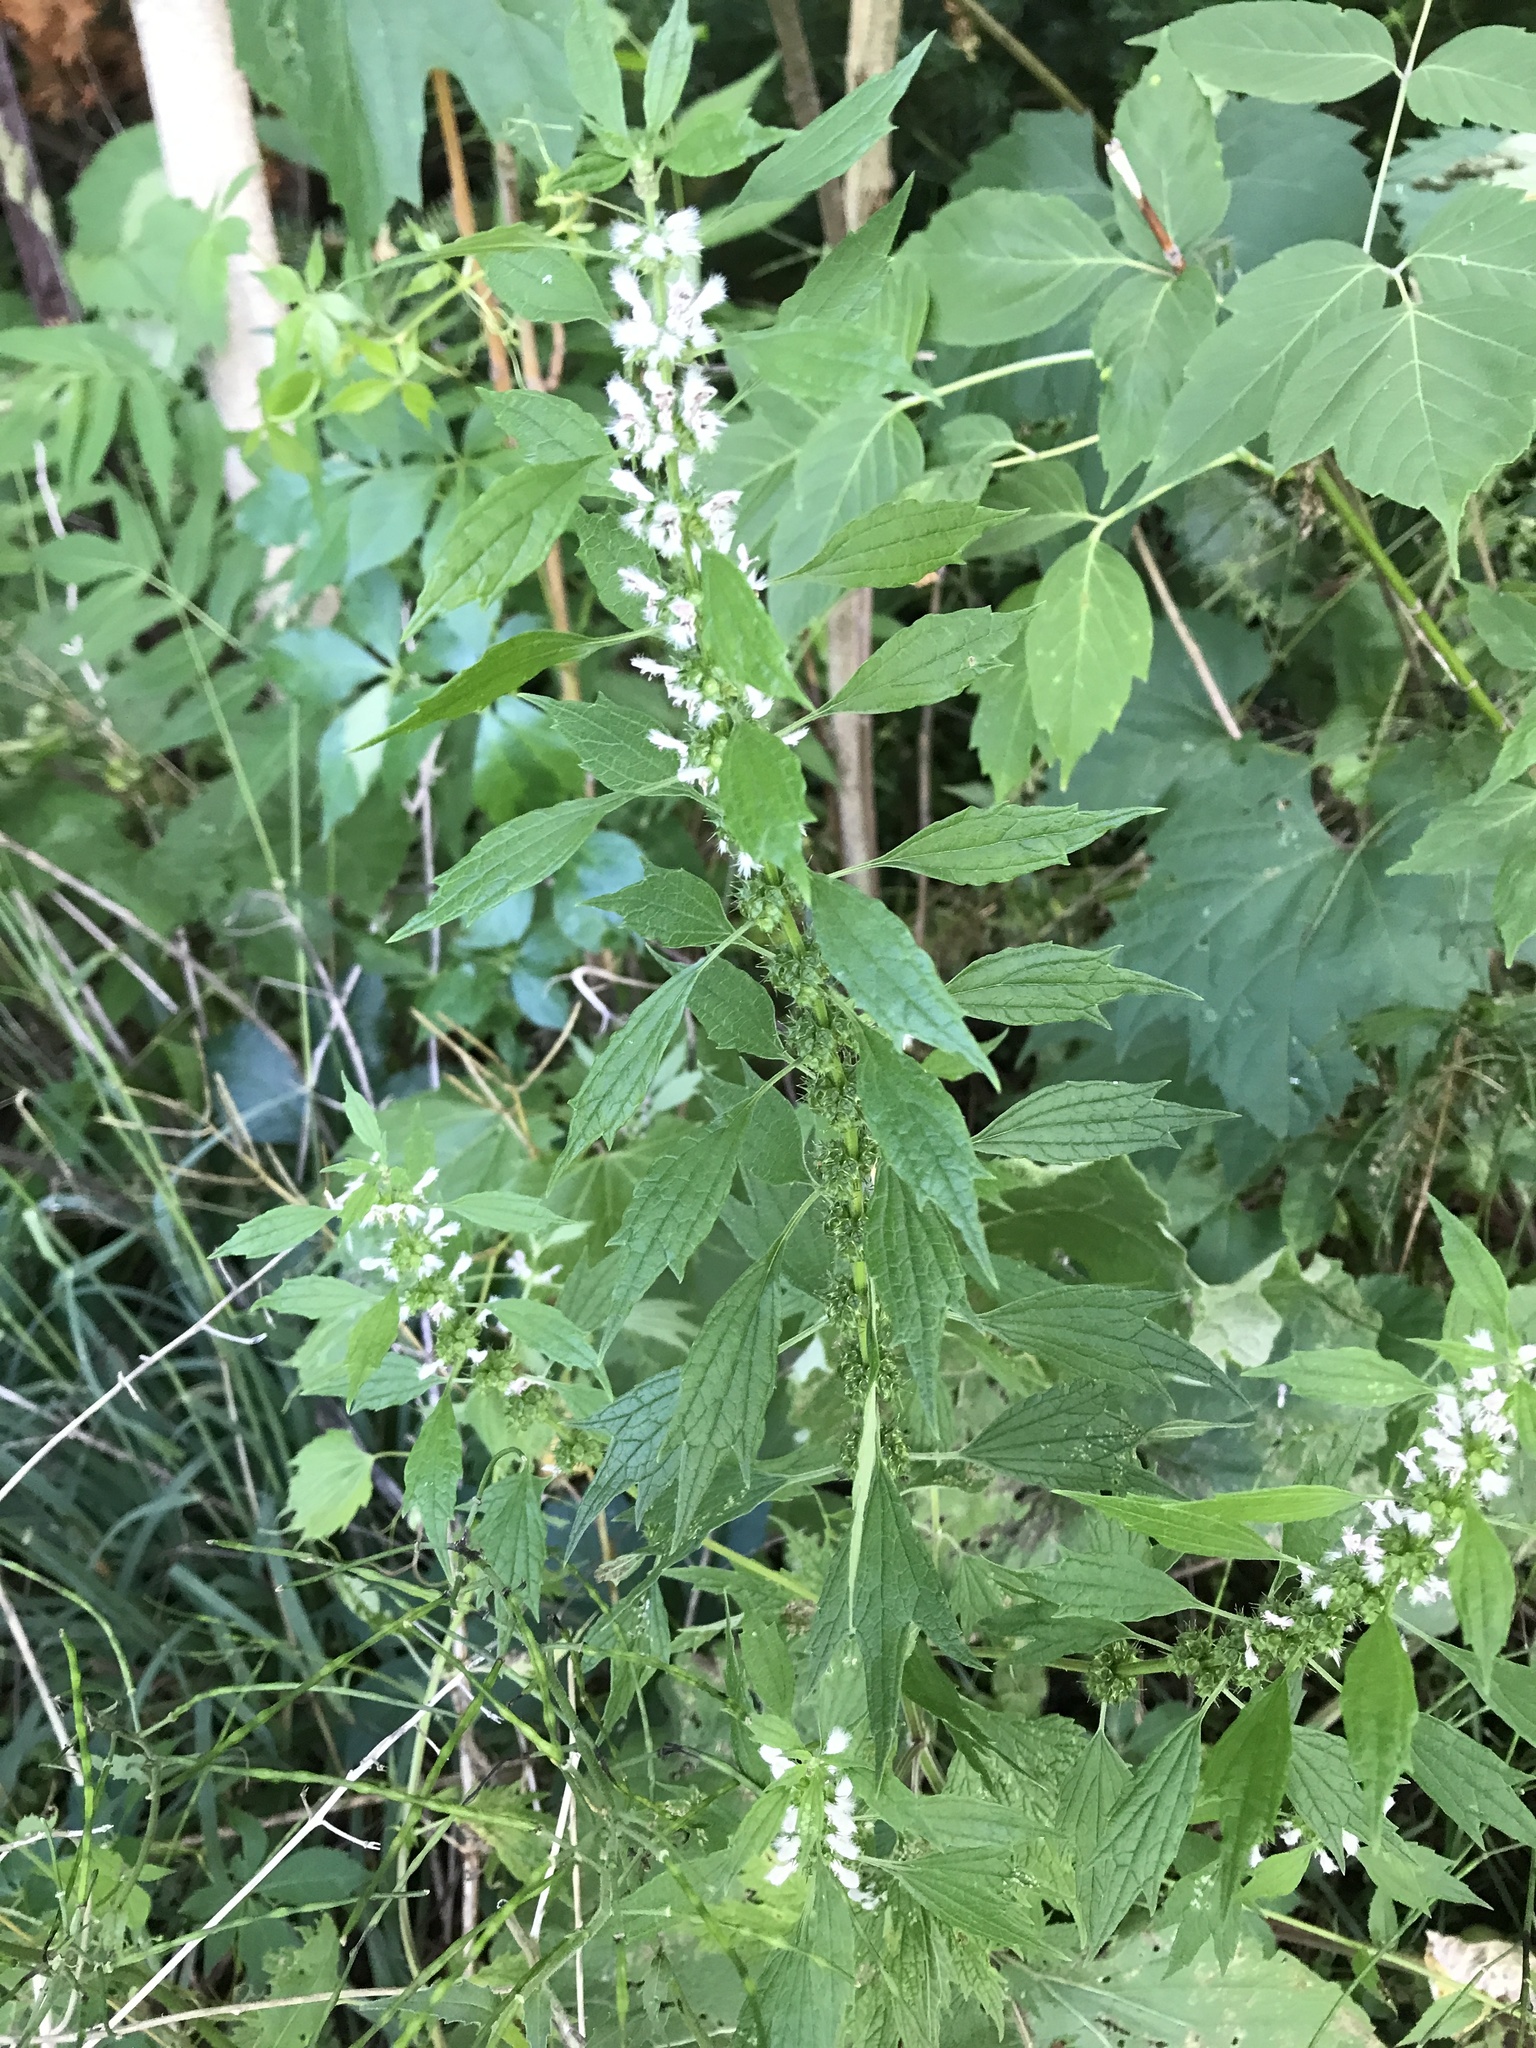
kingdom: Plantae
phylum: Tracheophyta
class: Magnoliopsida
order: Lamiales
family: Lamiaceae
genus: Leonurus
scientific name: Leonurus cardiaca
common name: Motherwort
